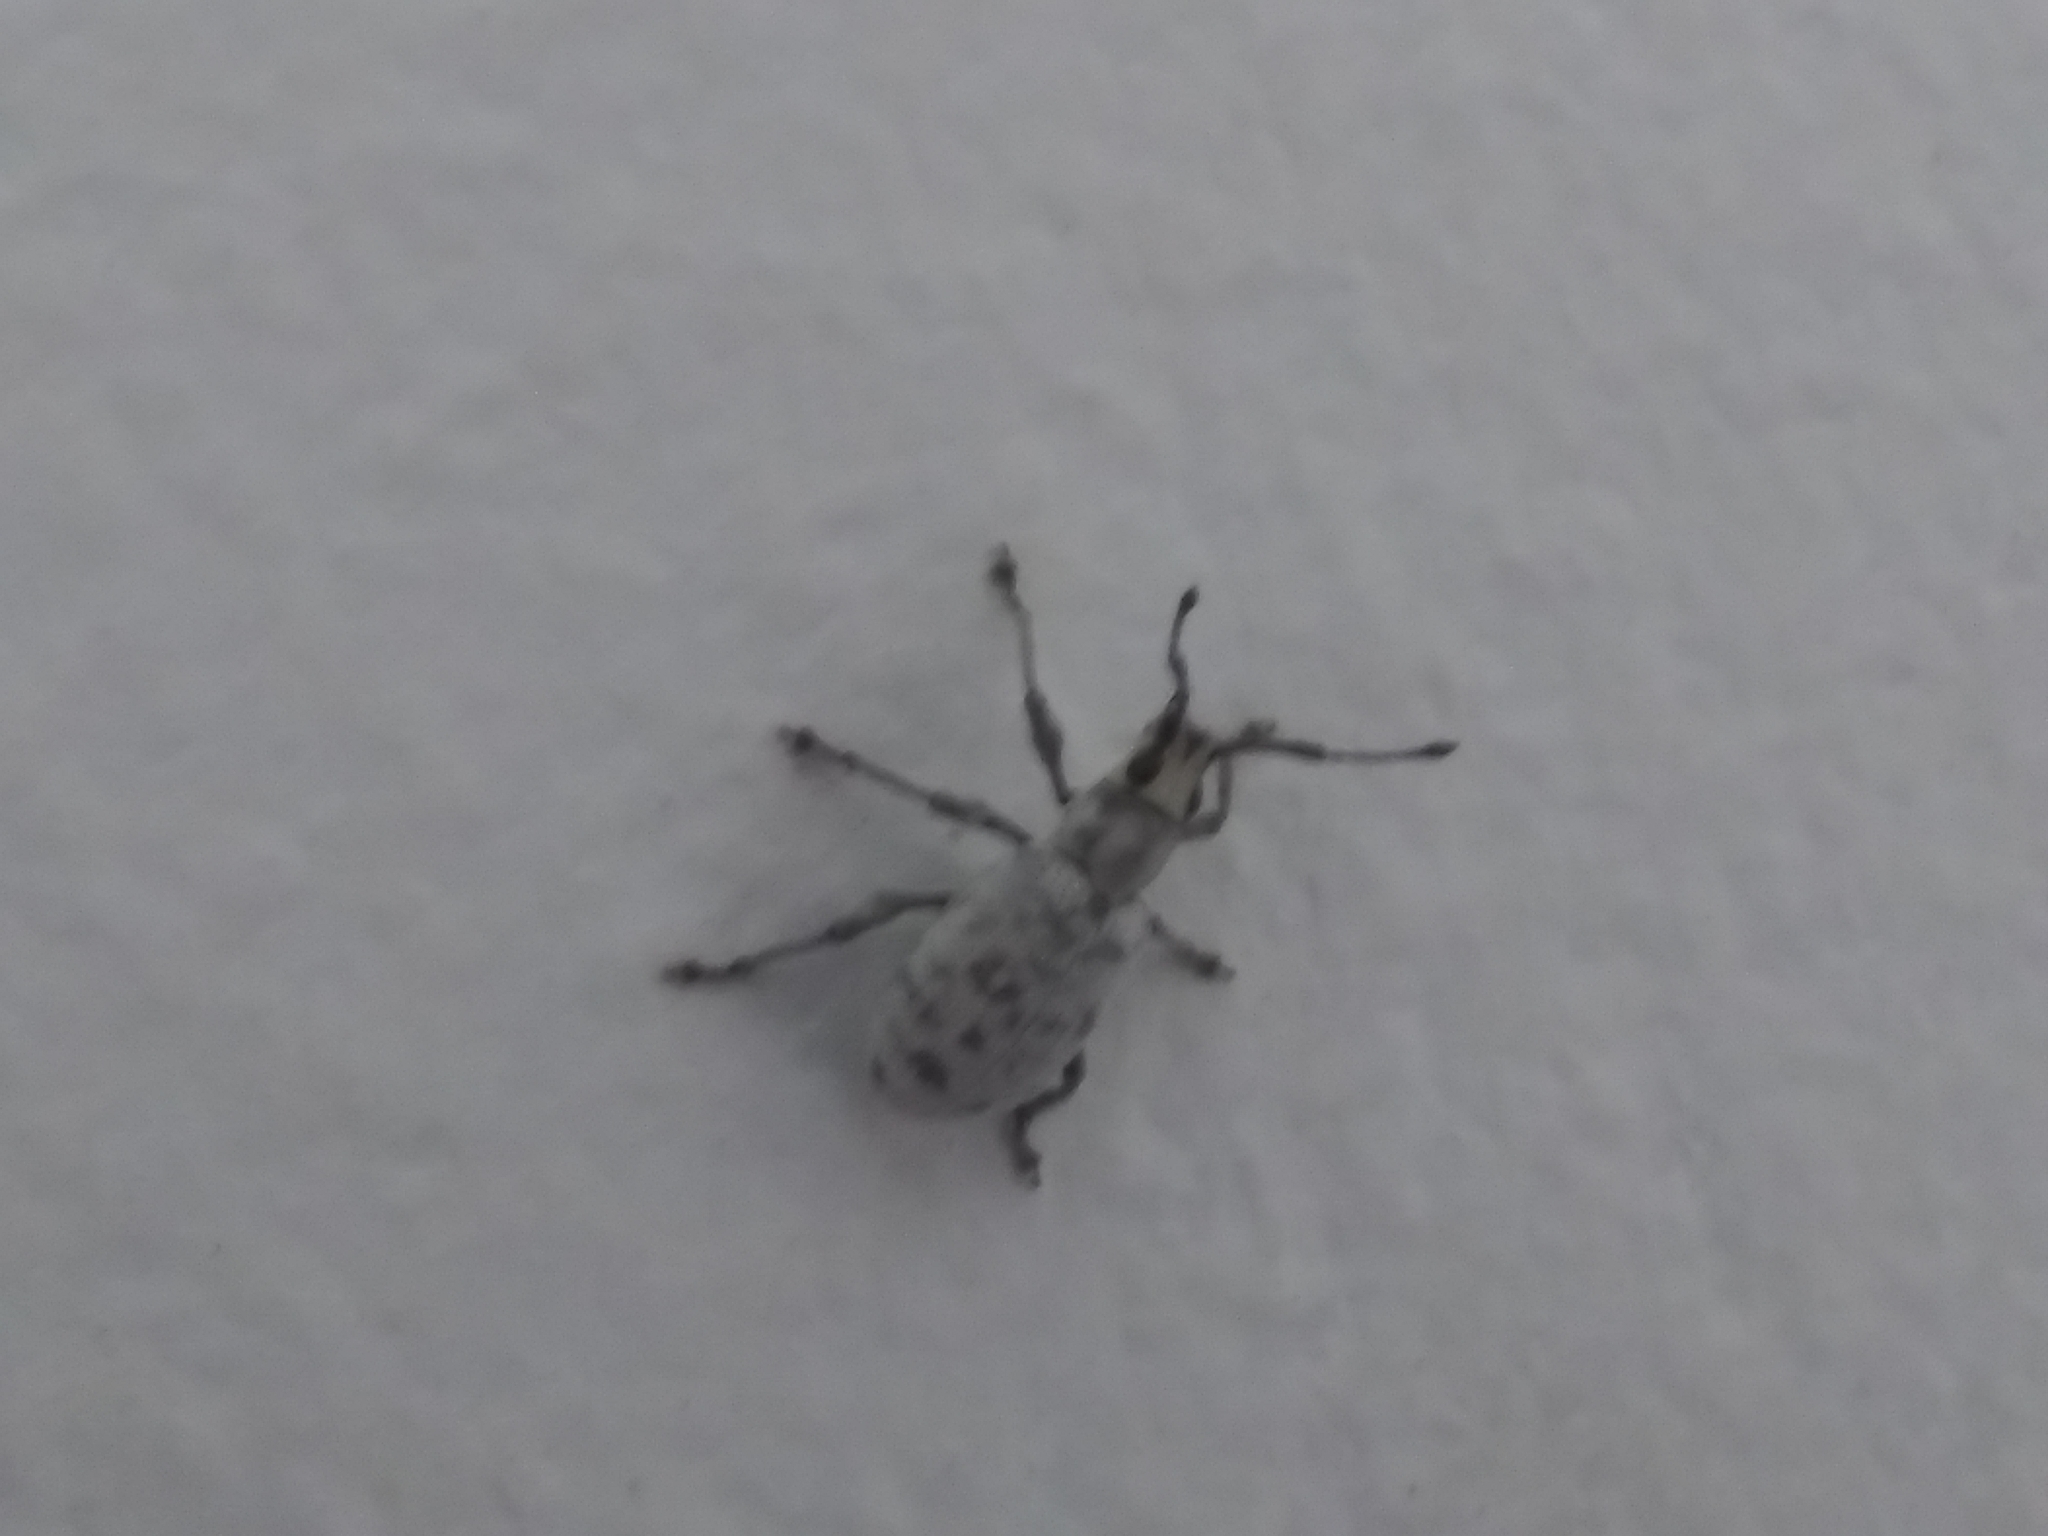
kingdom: Animalia
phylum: Arthropoda
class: Insecta
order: Coleoptera
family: Curculionidae
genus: Myllocerus
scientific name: Myllocerus undecimpustulatus
